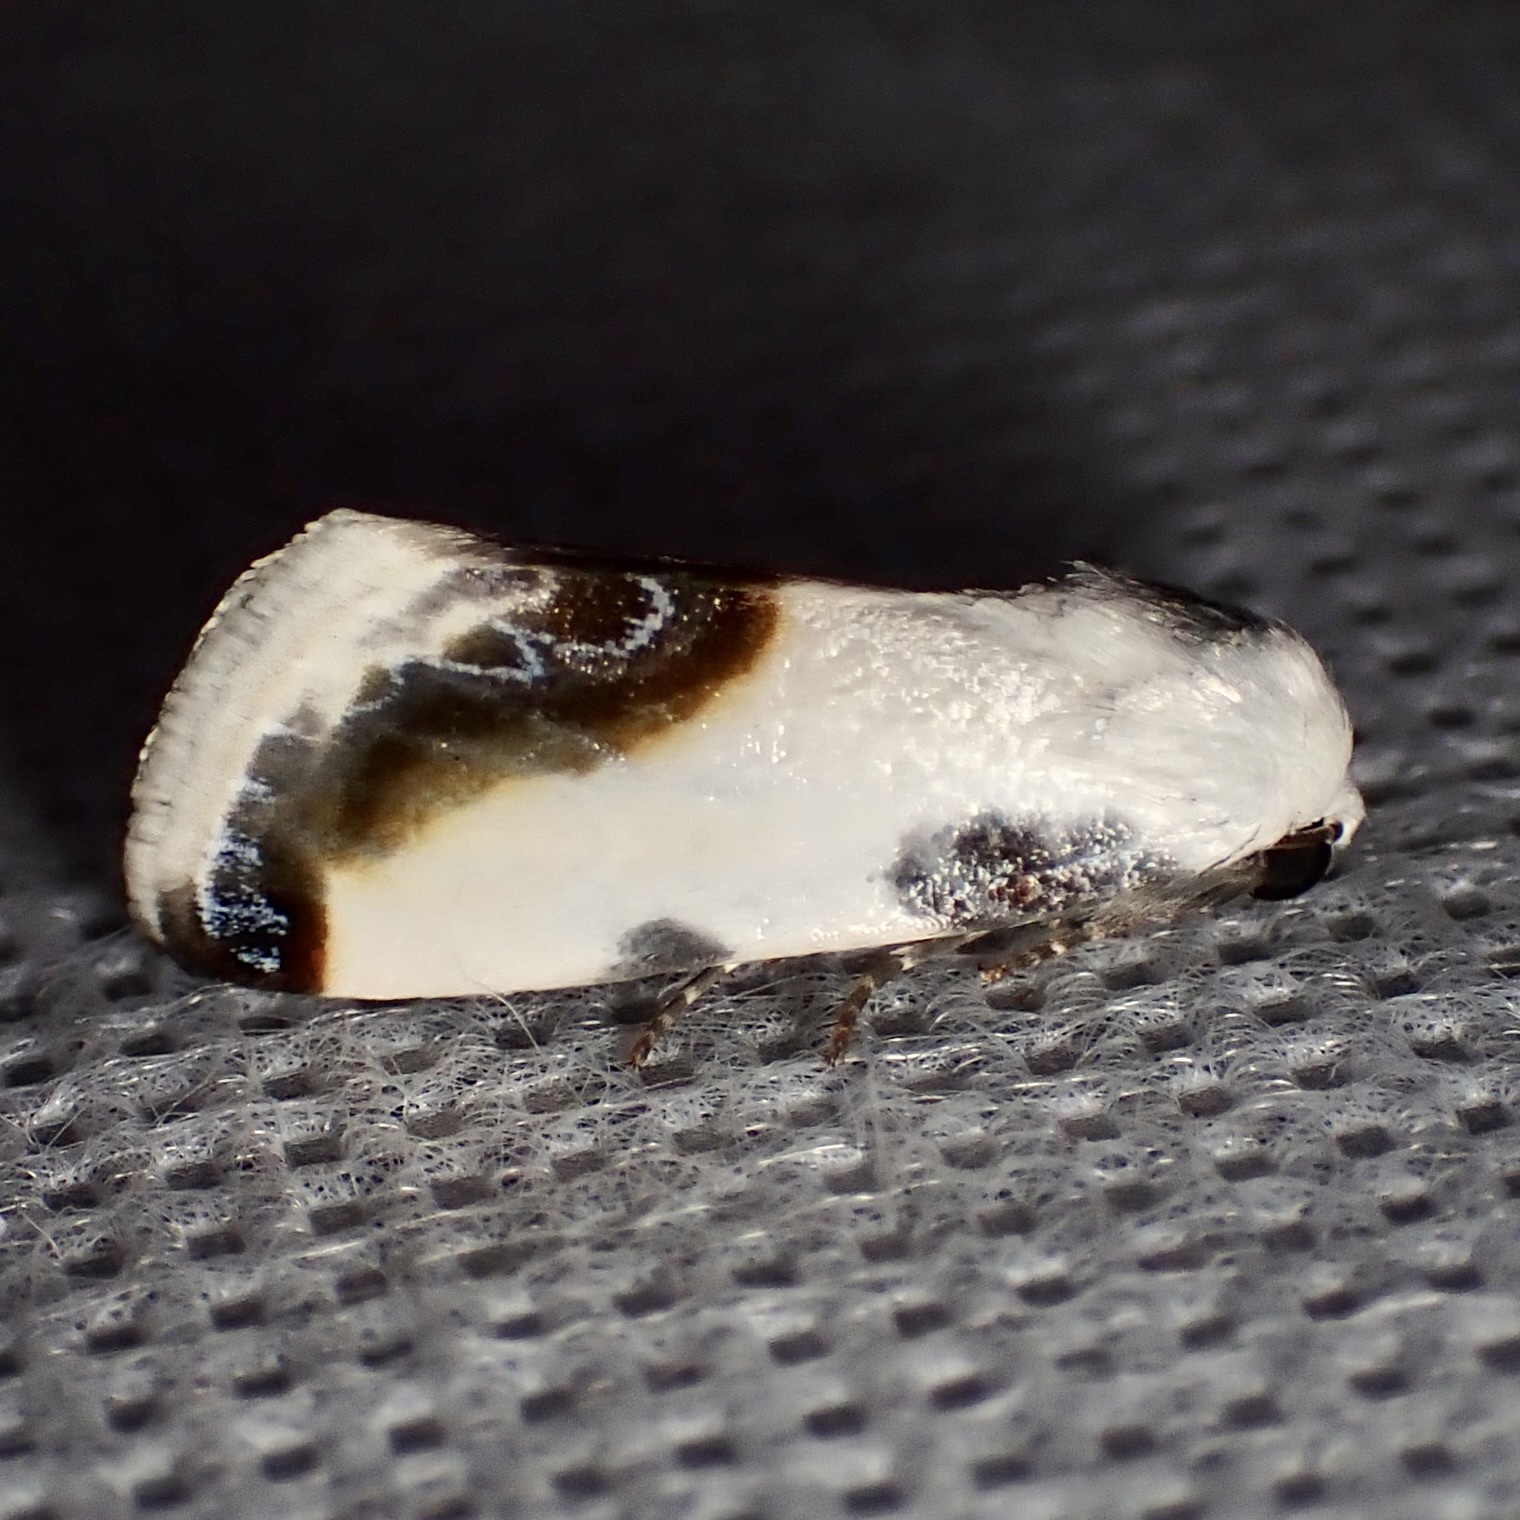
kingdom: Animalia
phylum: Arthropoda
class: Insecta
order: Lepidoptera
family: Noctuidae
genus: Acontia
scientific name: Acontia chea
